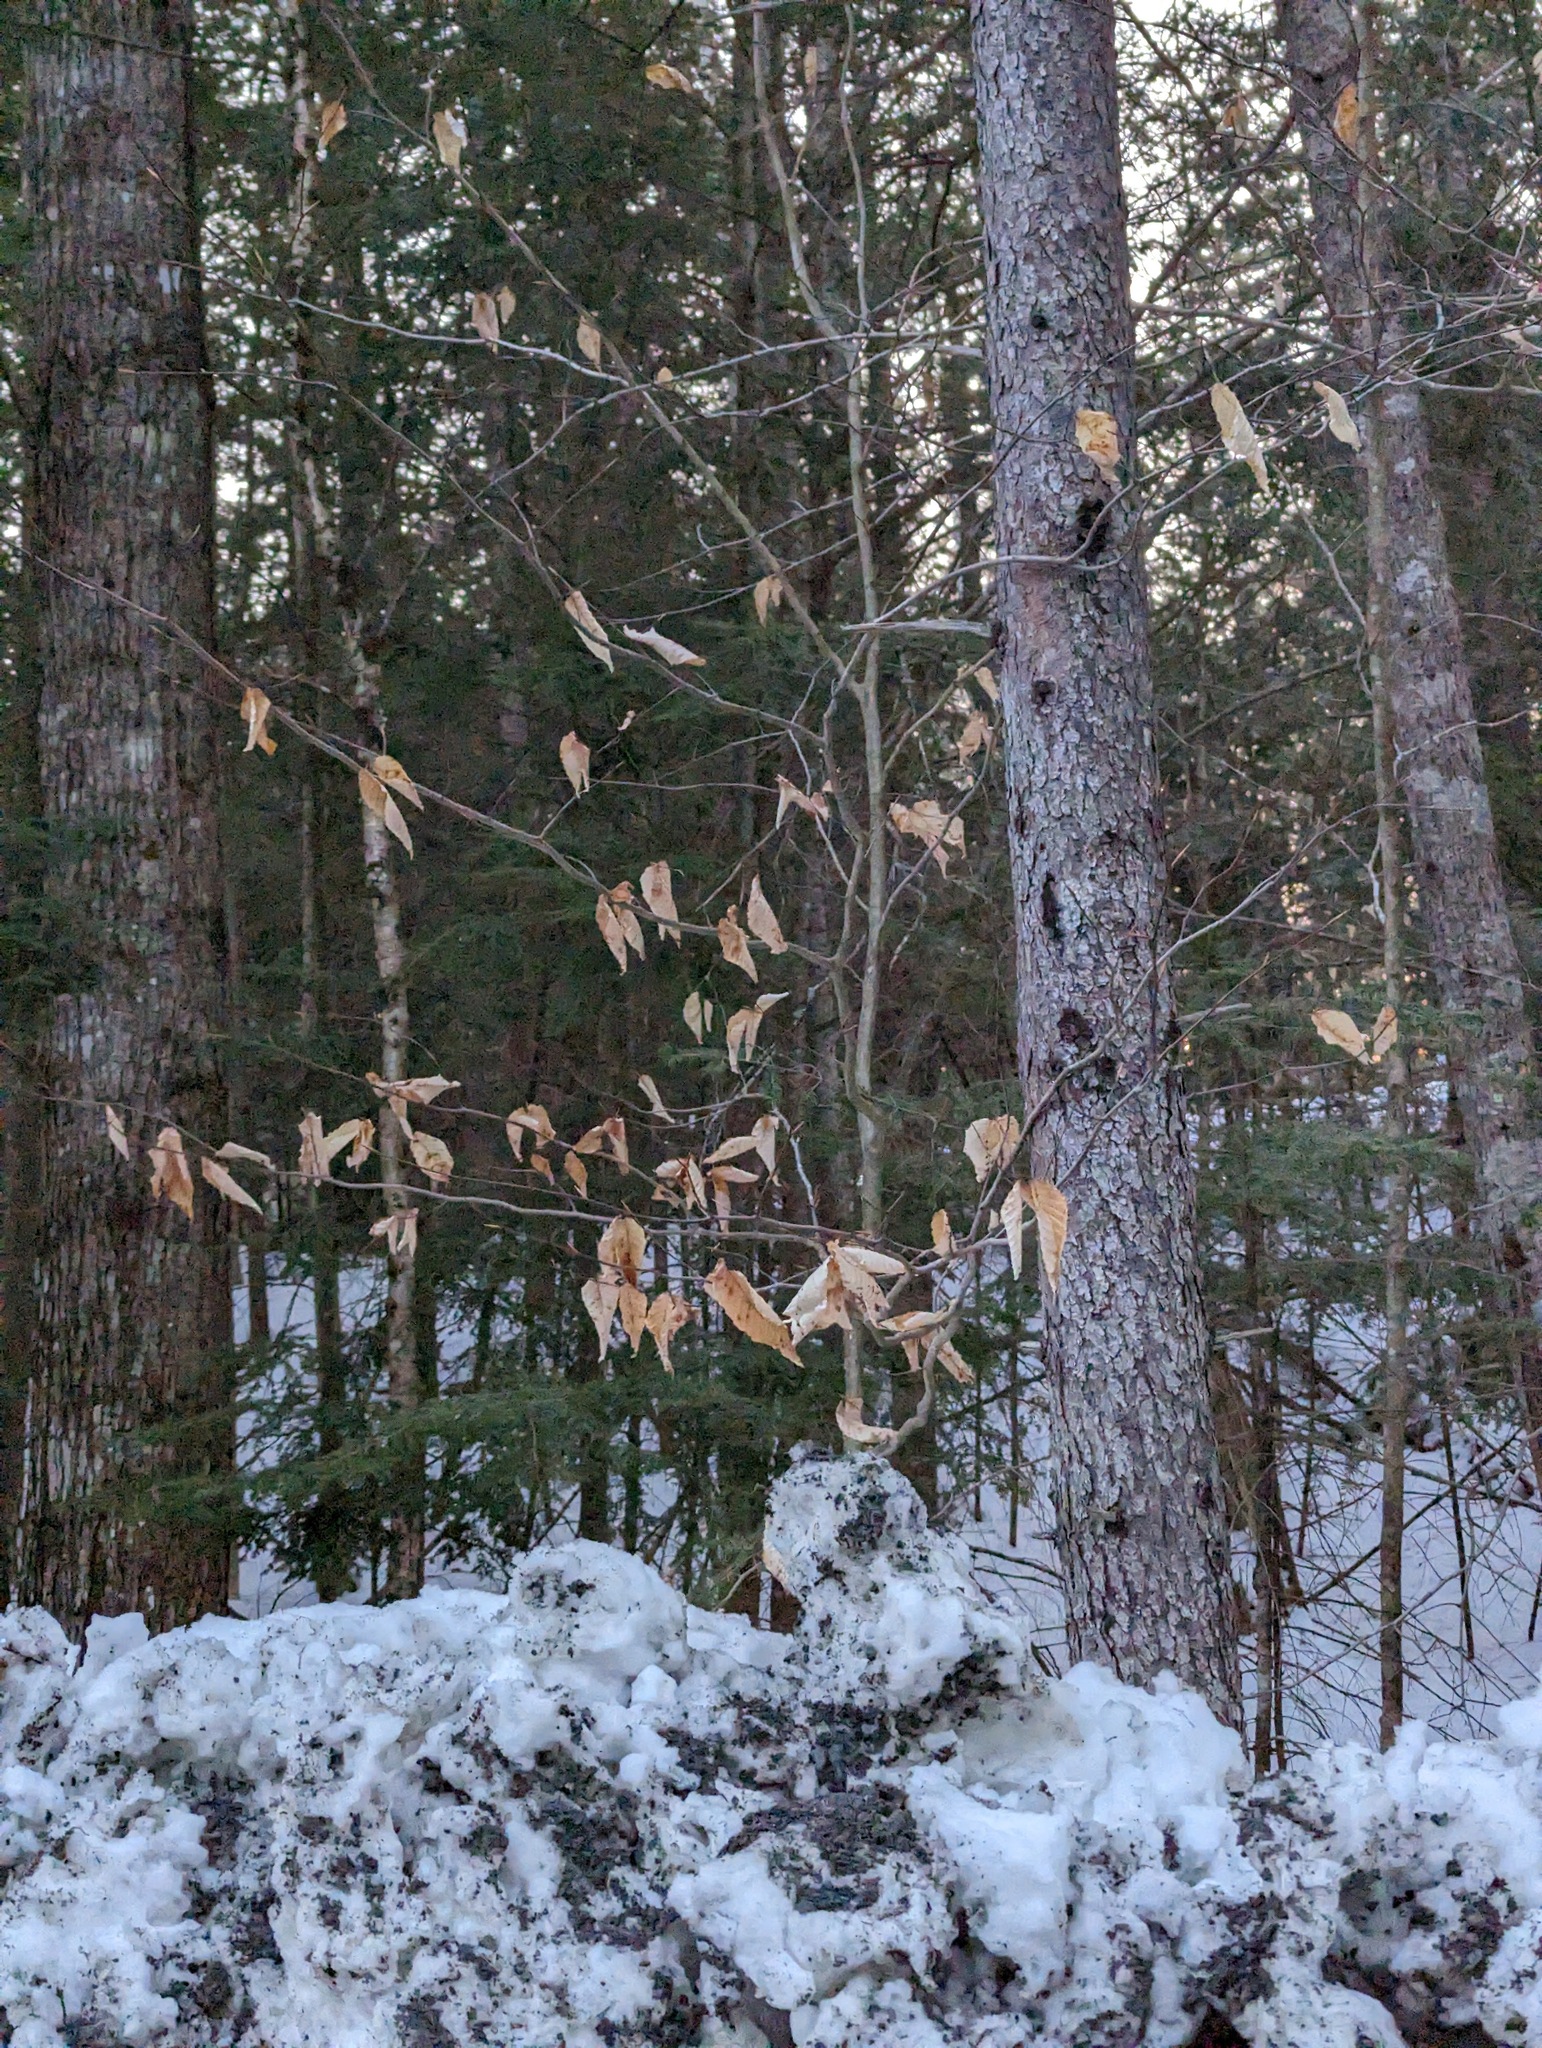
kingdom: Plantae
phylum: Tracheophyta
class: Magnoliopsida
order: Fagales
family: Fagaceae
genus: Fagus
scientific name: Fagus grandifolia
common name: American beech
